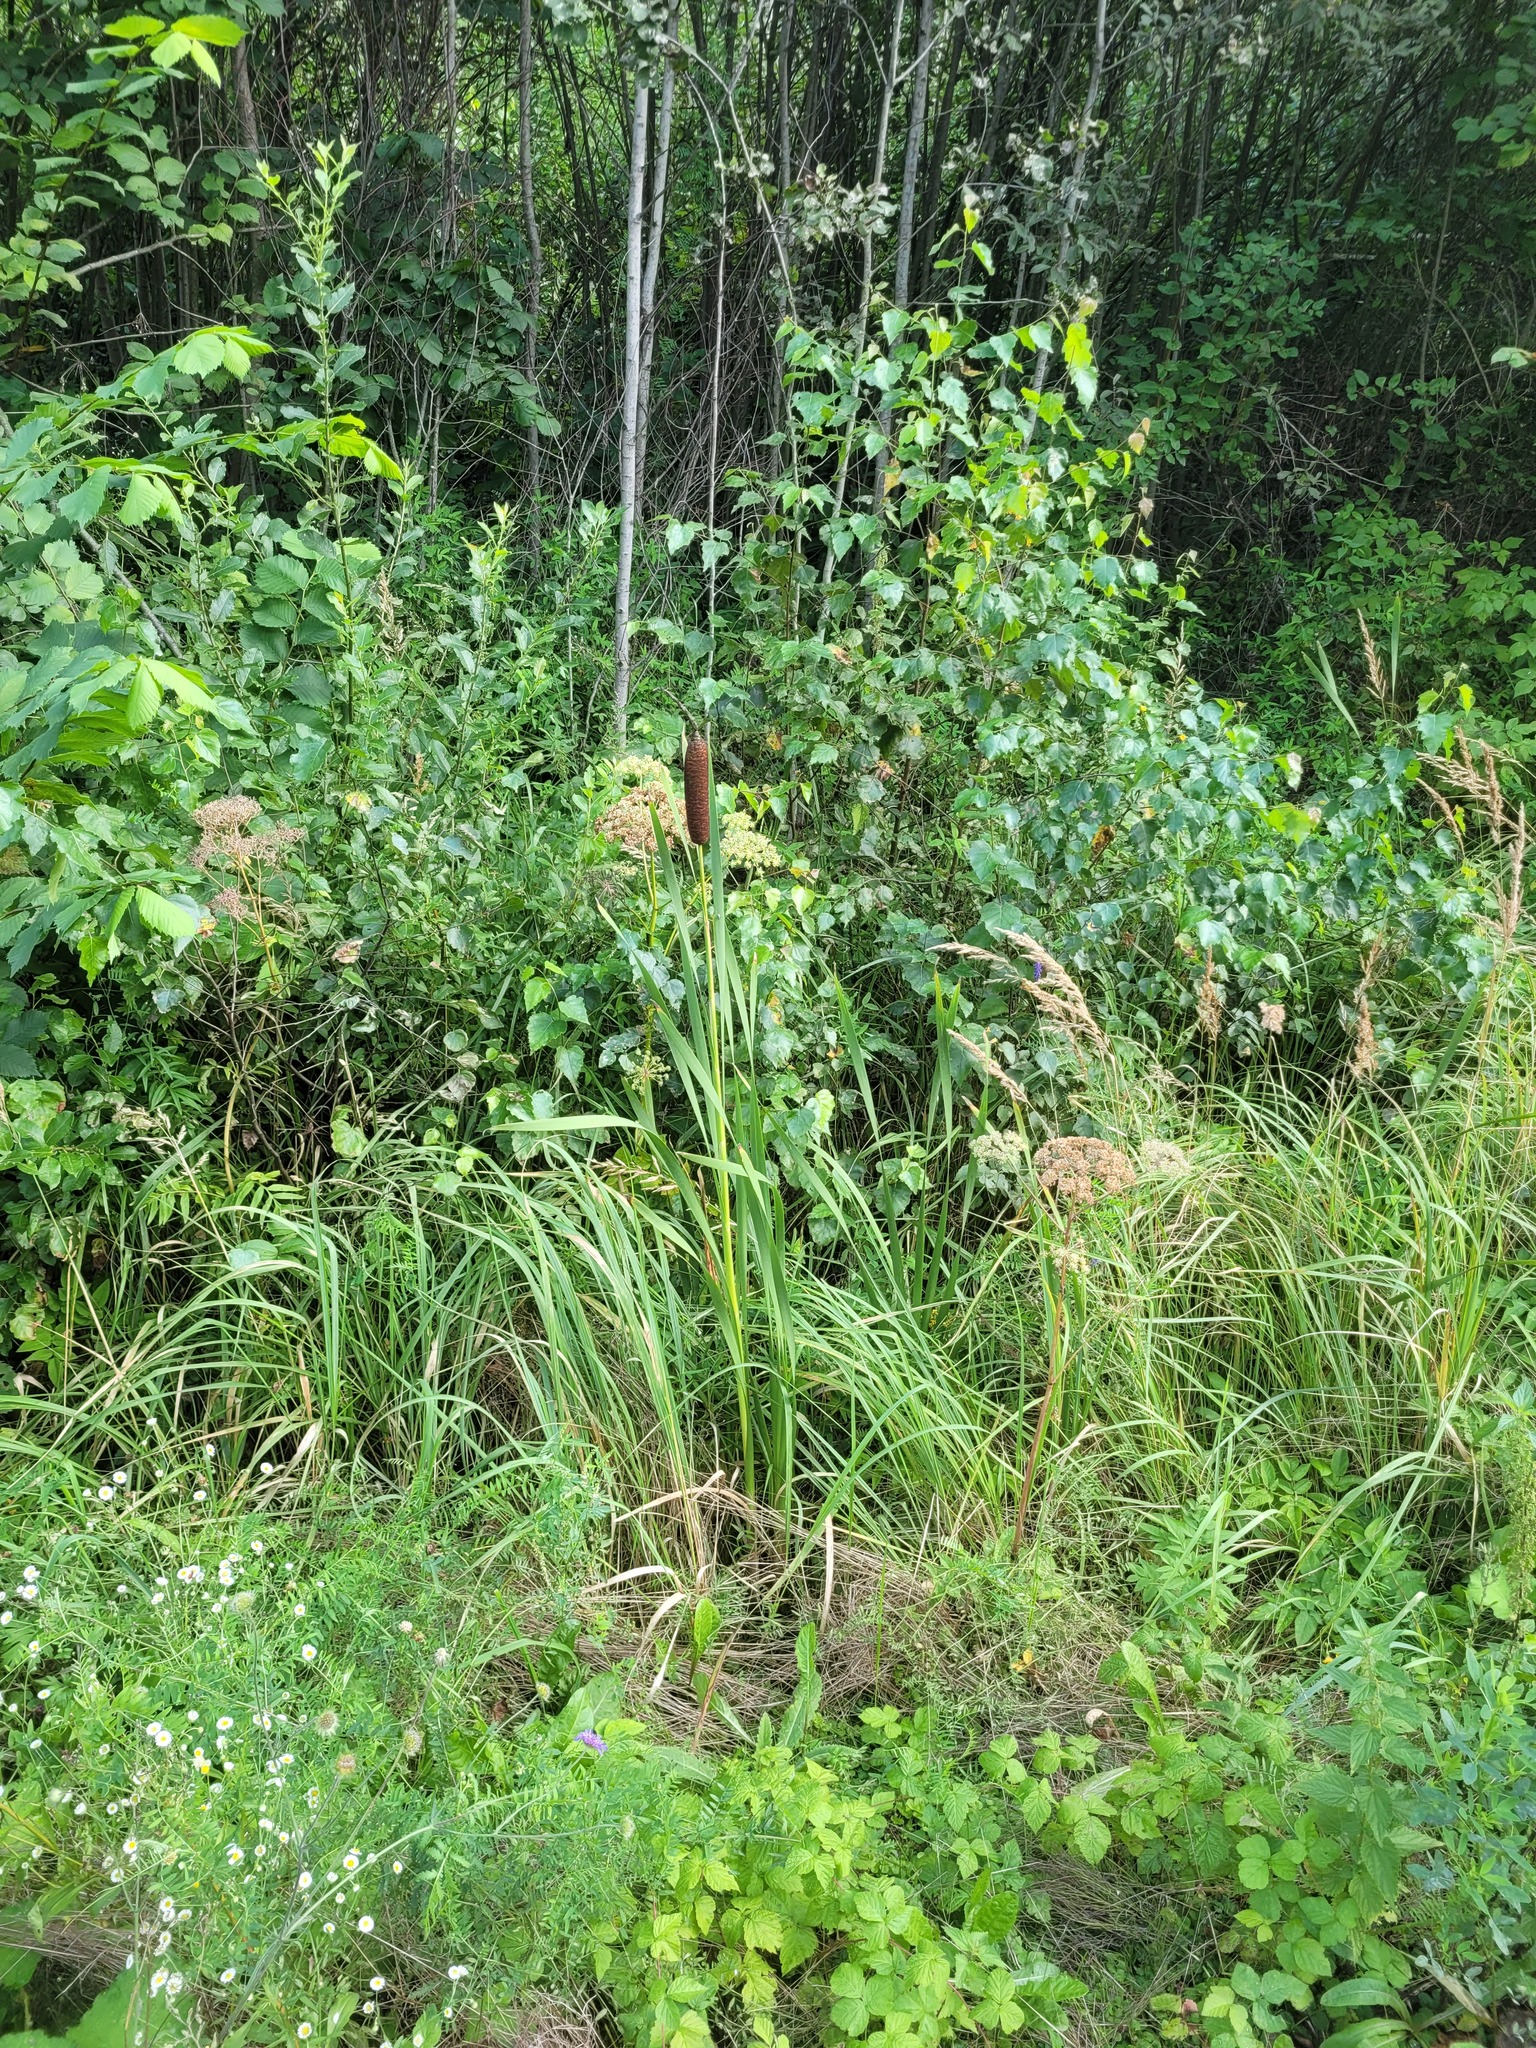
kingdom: Plantae
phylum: Tracheophyta
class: Liliopsida
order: Poales
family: Typhaceae
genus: Typha
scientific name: Typha latifolia
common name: Broadleaf cattail
